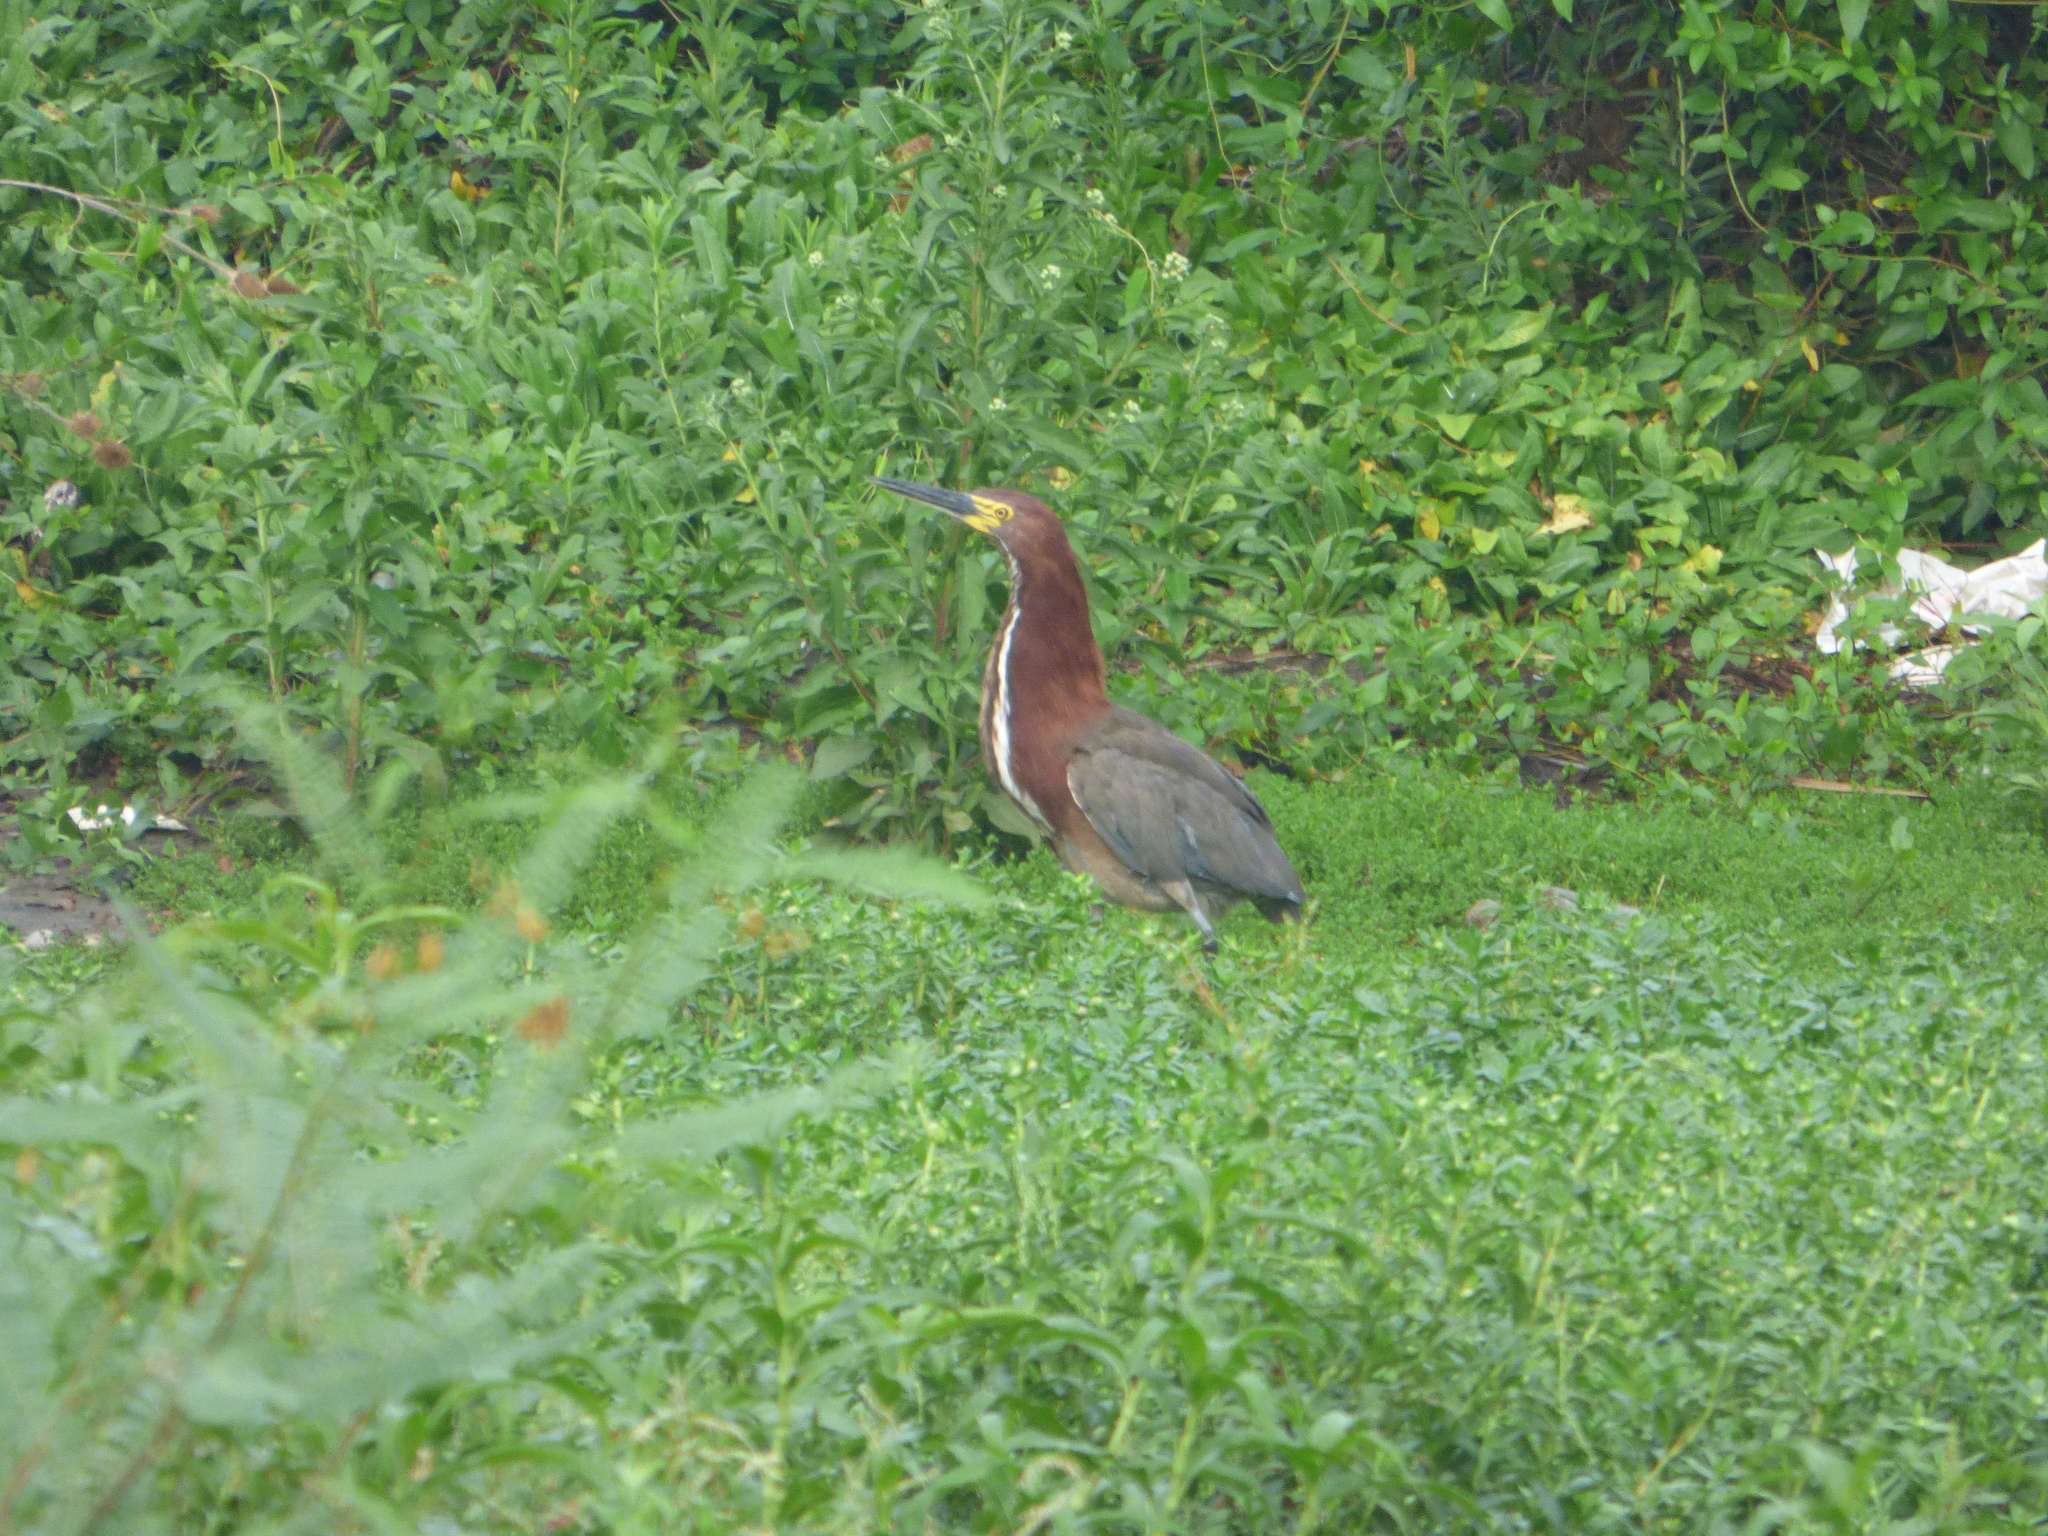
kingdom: Animalia
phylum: Chordata
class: Aves
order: Pelecaniformes
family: Ardeidae
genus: Tigrisoma
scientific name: Tigrisoma lineatum
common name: Rufescent tiger-heron
